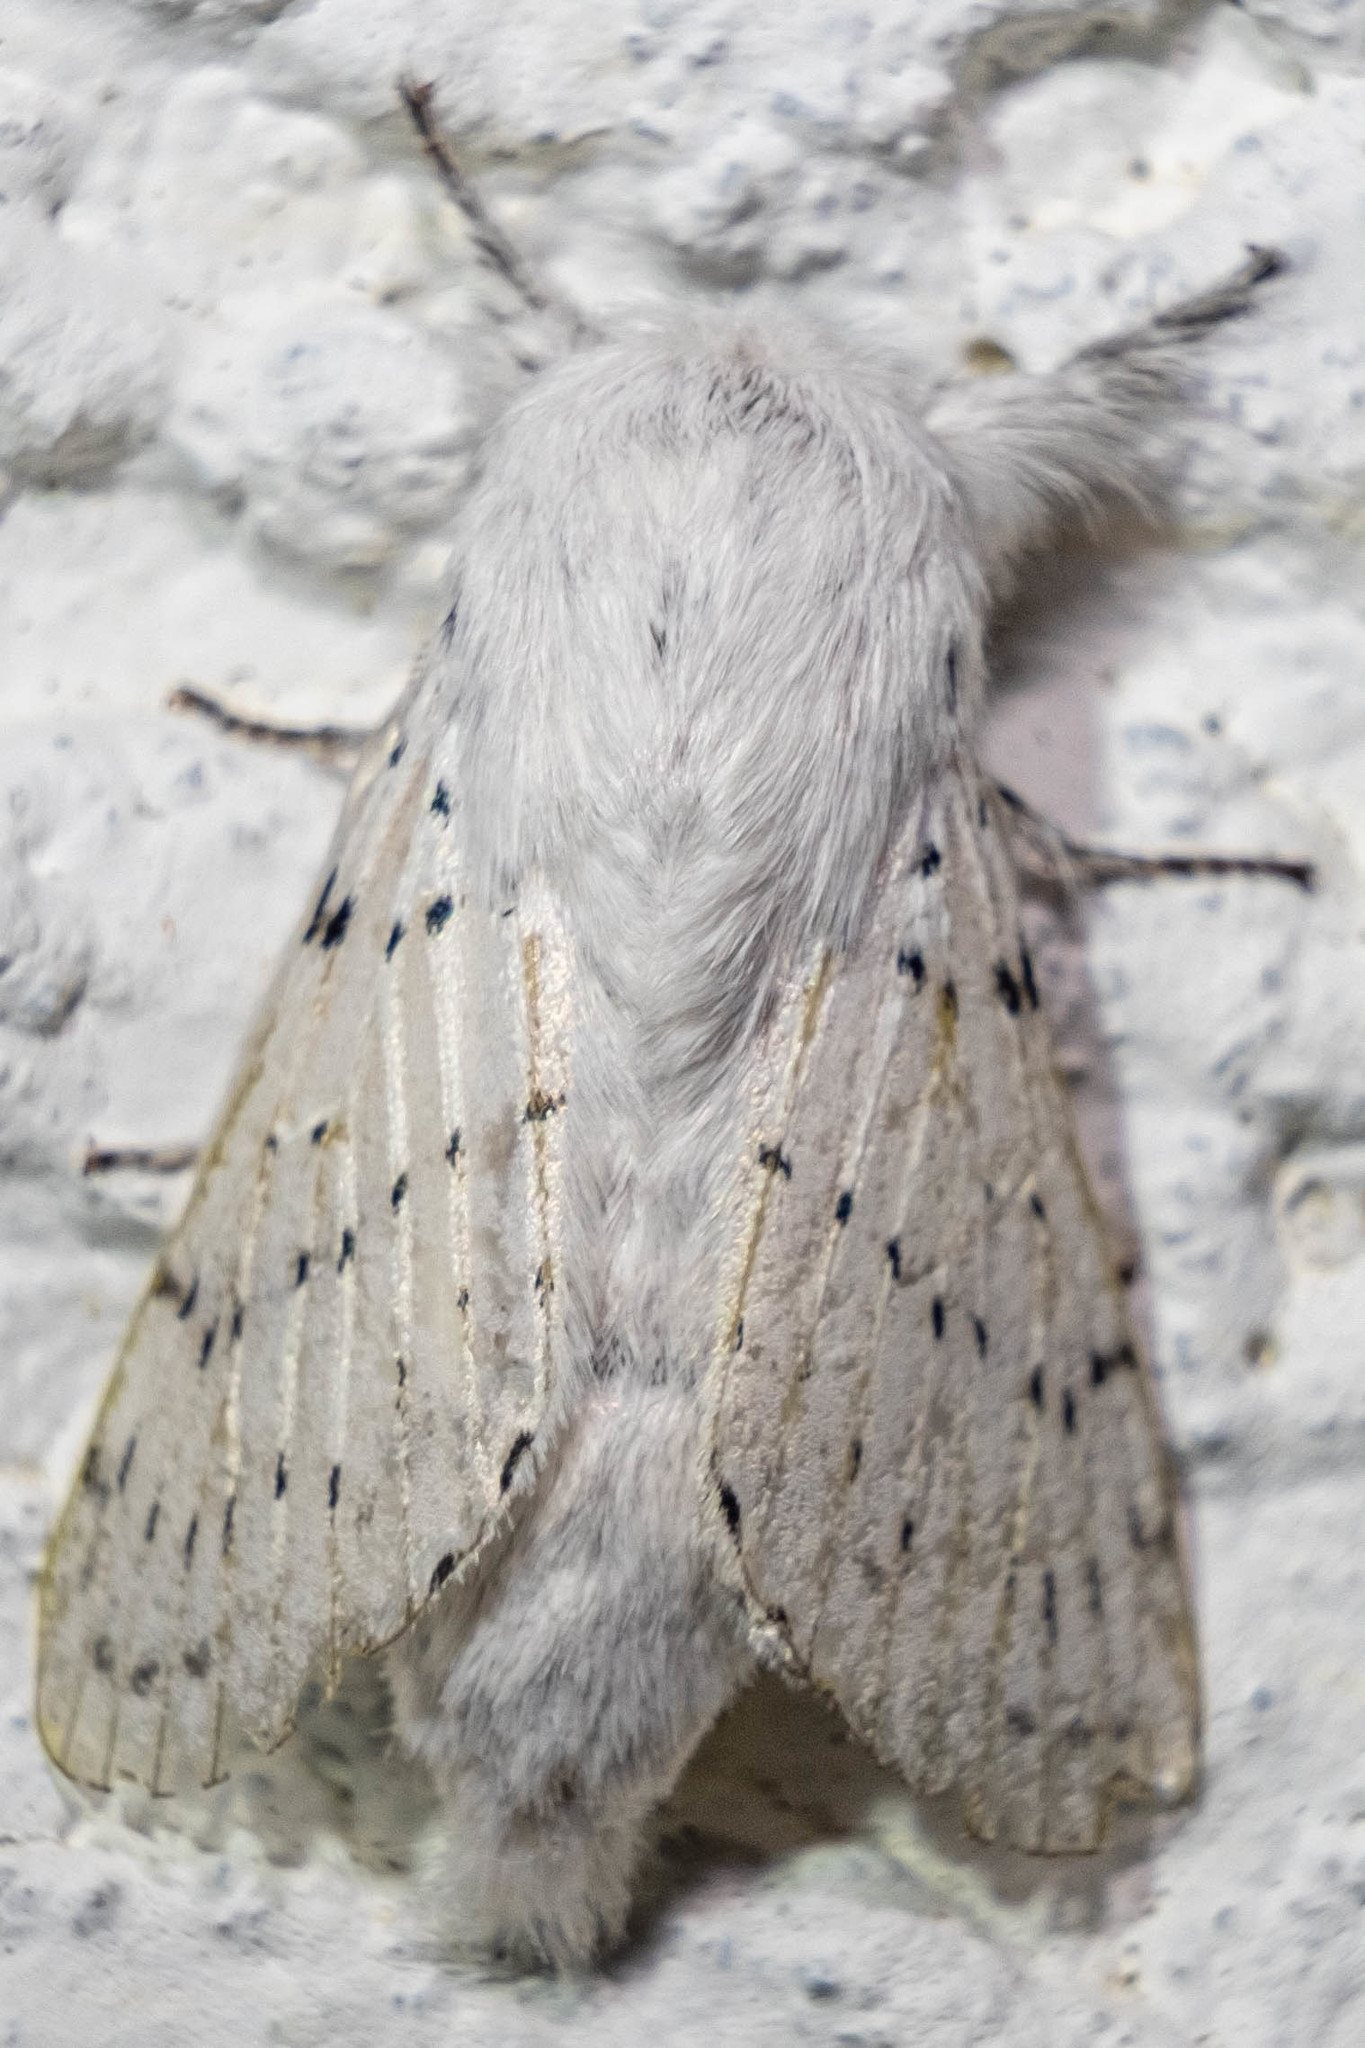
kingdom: Animalia
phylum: Arthropoda
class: Insecta
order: Lepidoptera
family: Lasiocampidae
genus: Artace
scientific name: Artace cribrarius
